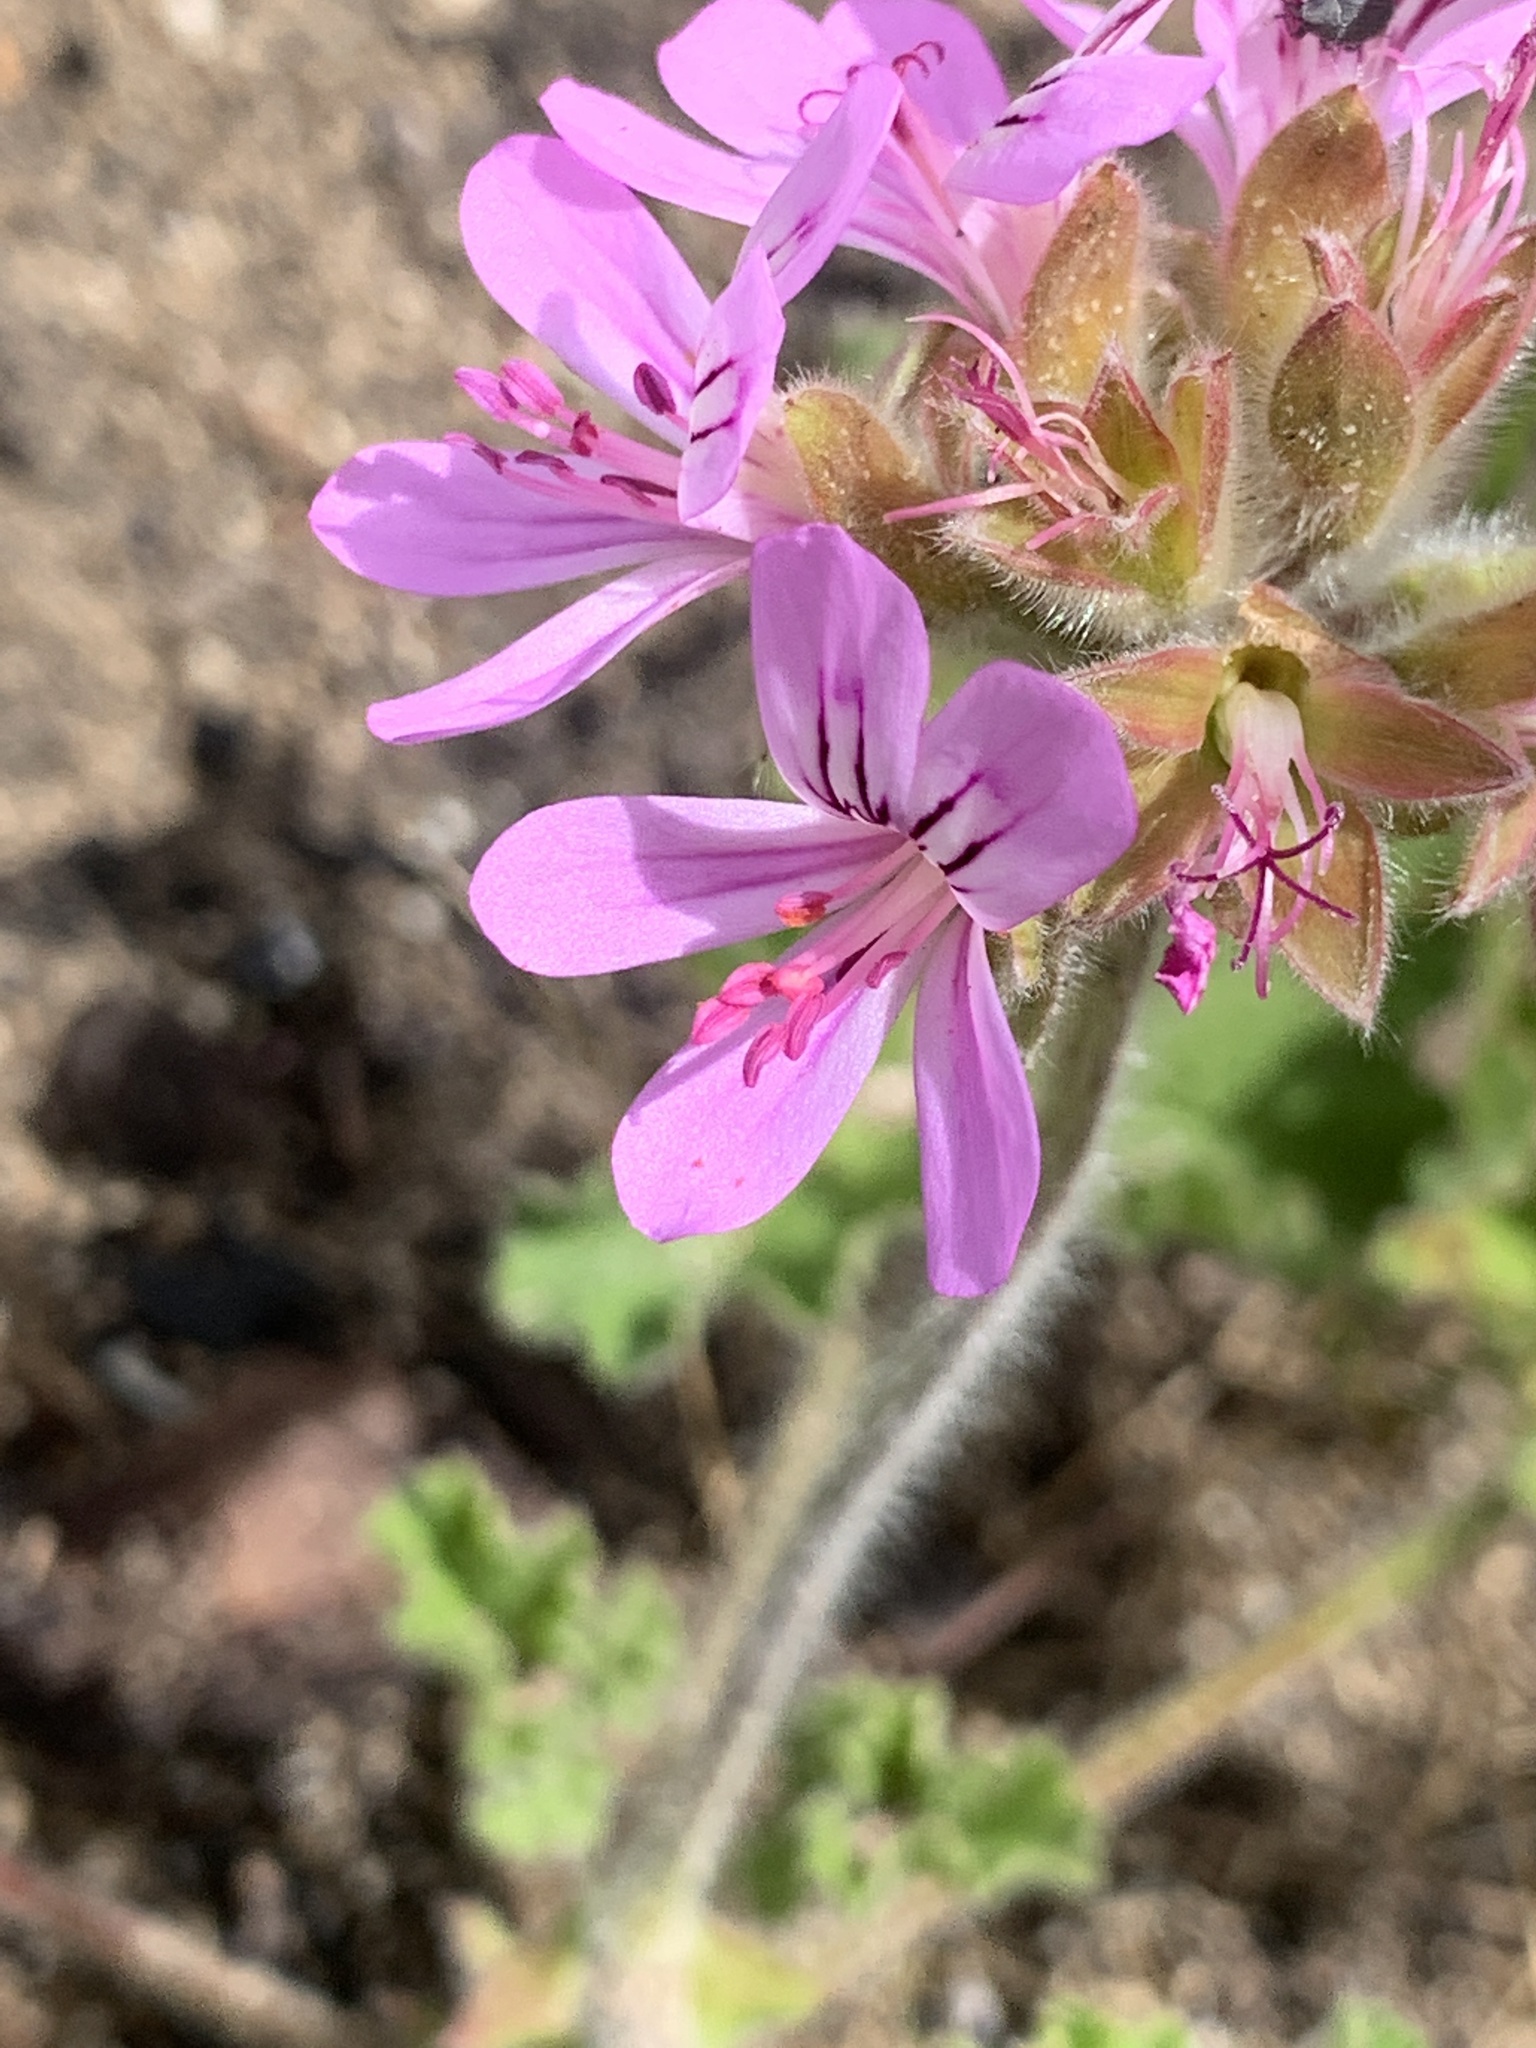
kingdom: Plantae
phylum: Tracheophyta
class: Magnoliopsida
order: Geraniales
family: Geraniaceae
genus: Pelargonium
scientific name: Pelargonium cucullatum
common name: Tree pelargonium
